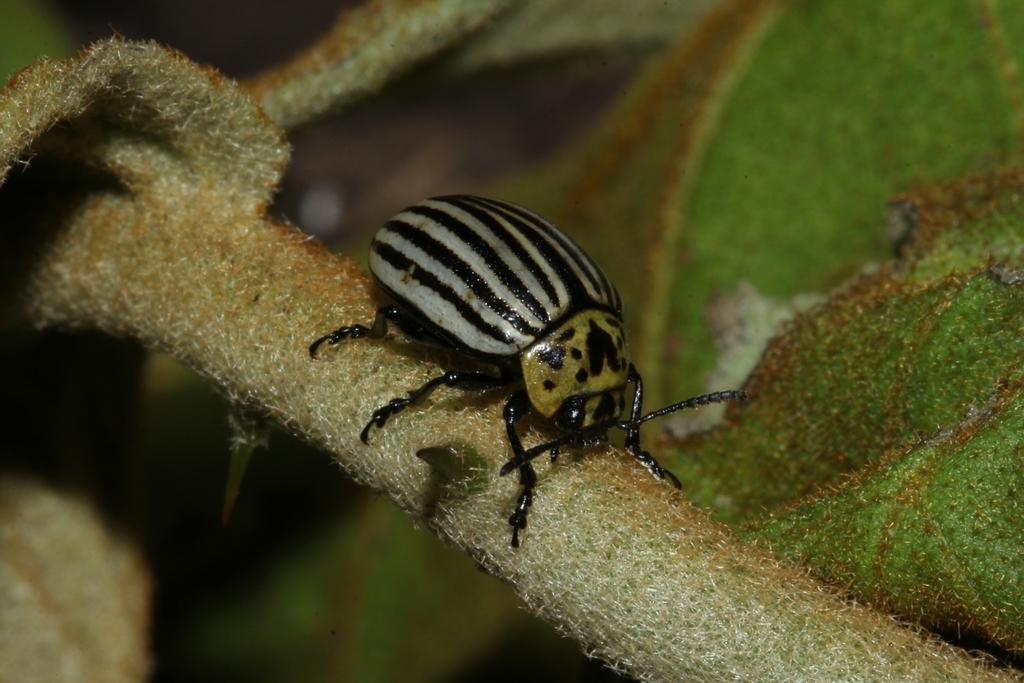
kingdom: Animalia
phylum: Arthropoda
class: Insecta
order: Coleoptera
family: Chrysomelidae
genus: Leptinotarsa
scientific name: Leptinotarsa
